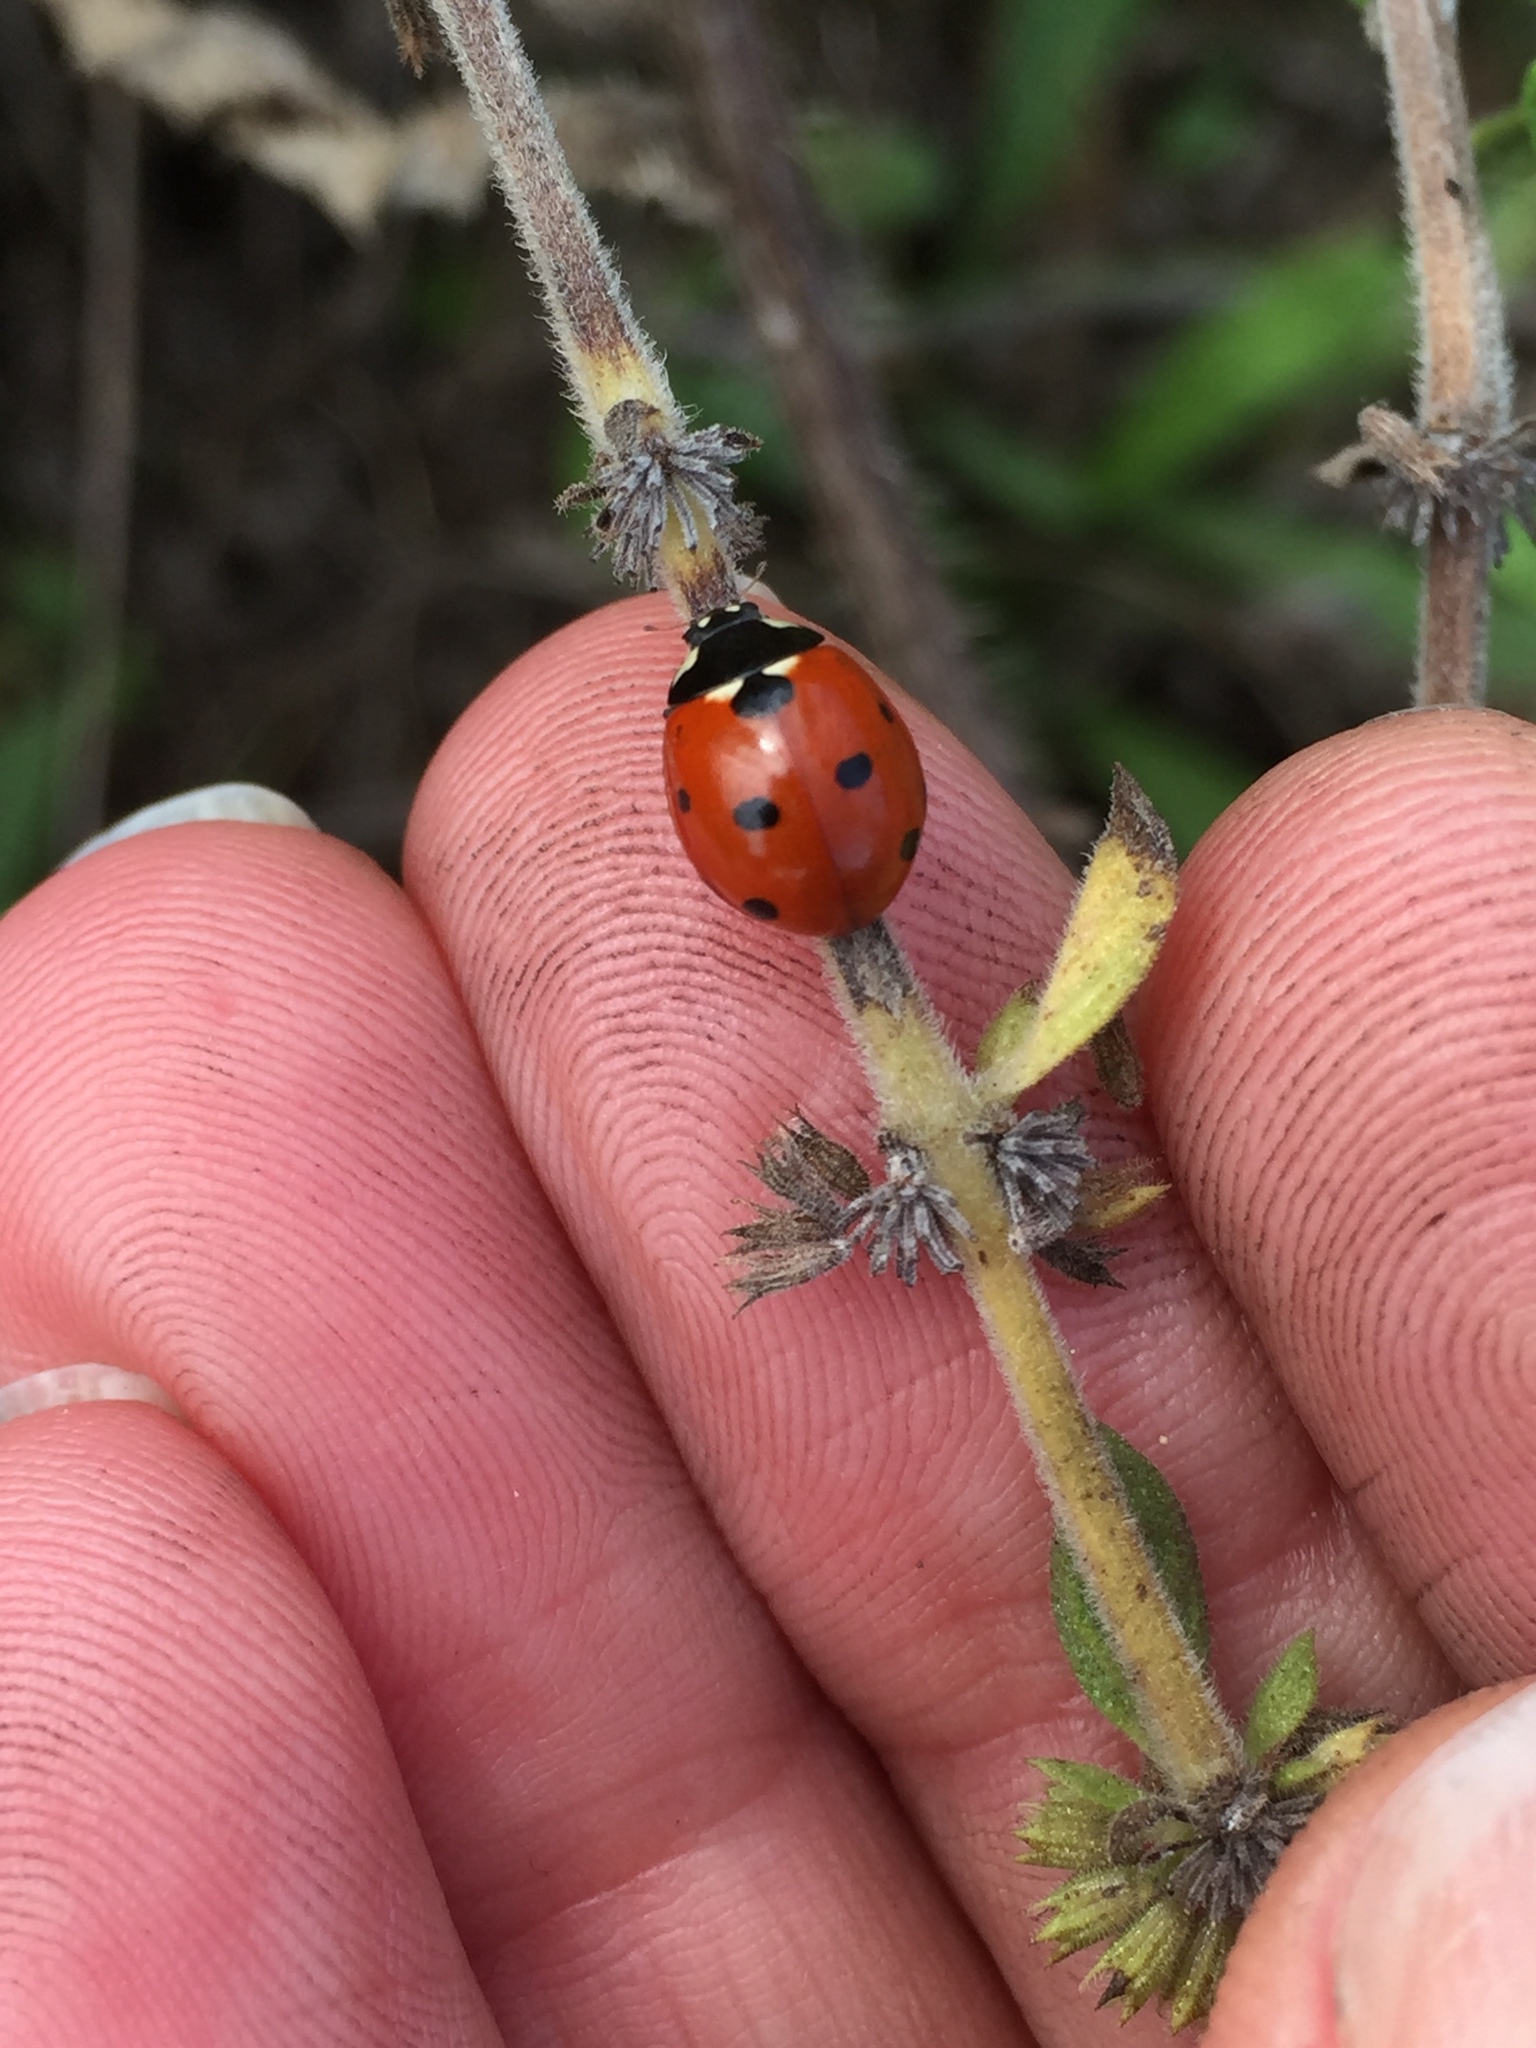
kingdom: Animalia
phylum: Arthropoda
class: Insecta
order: Coleoptera
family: Coccinellidae
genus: Coccinella
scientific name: Coccinella septempunctata
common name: Sevenspotted lady beetle
